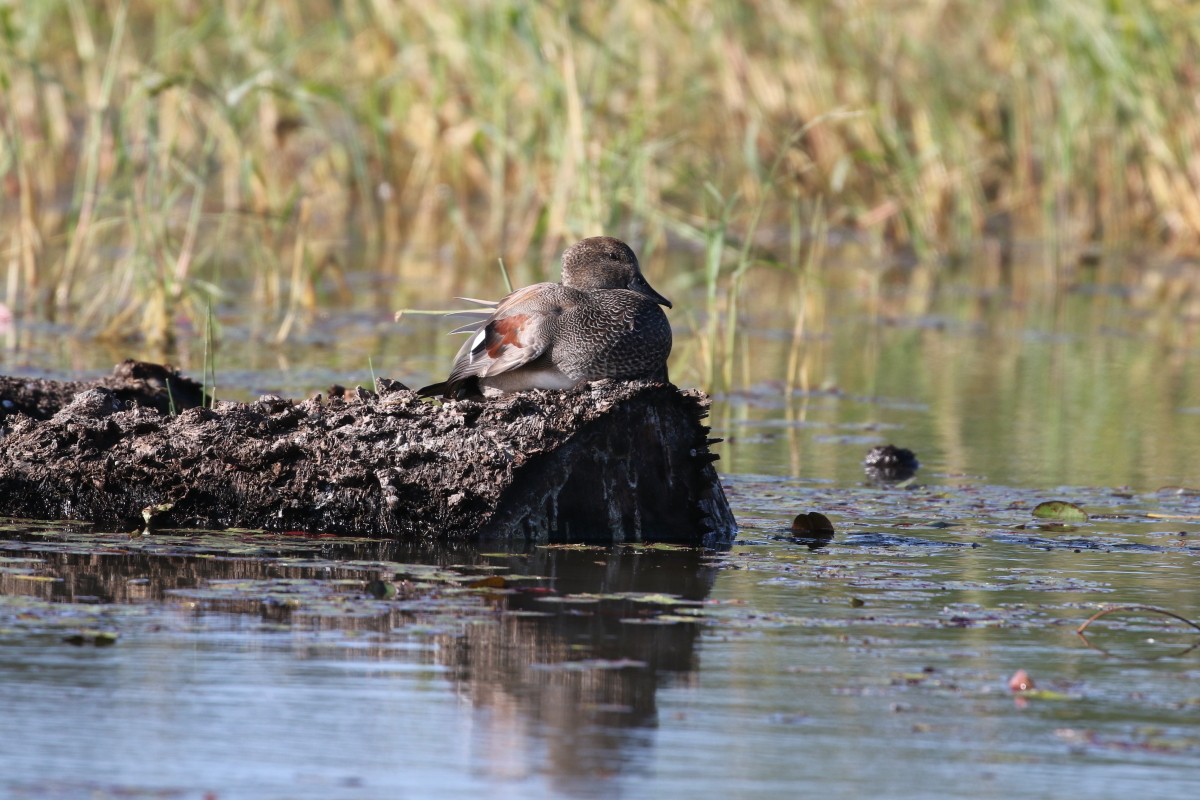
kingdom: Animalia
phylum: Chordata
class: Aves
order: Anseriformes
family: Anatidae
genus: Mareca
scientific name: Mareca strepera
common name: Gadwall
